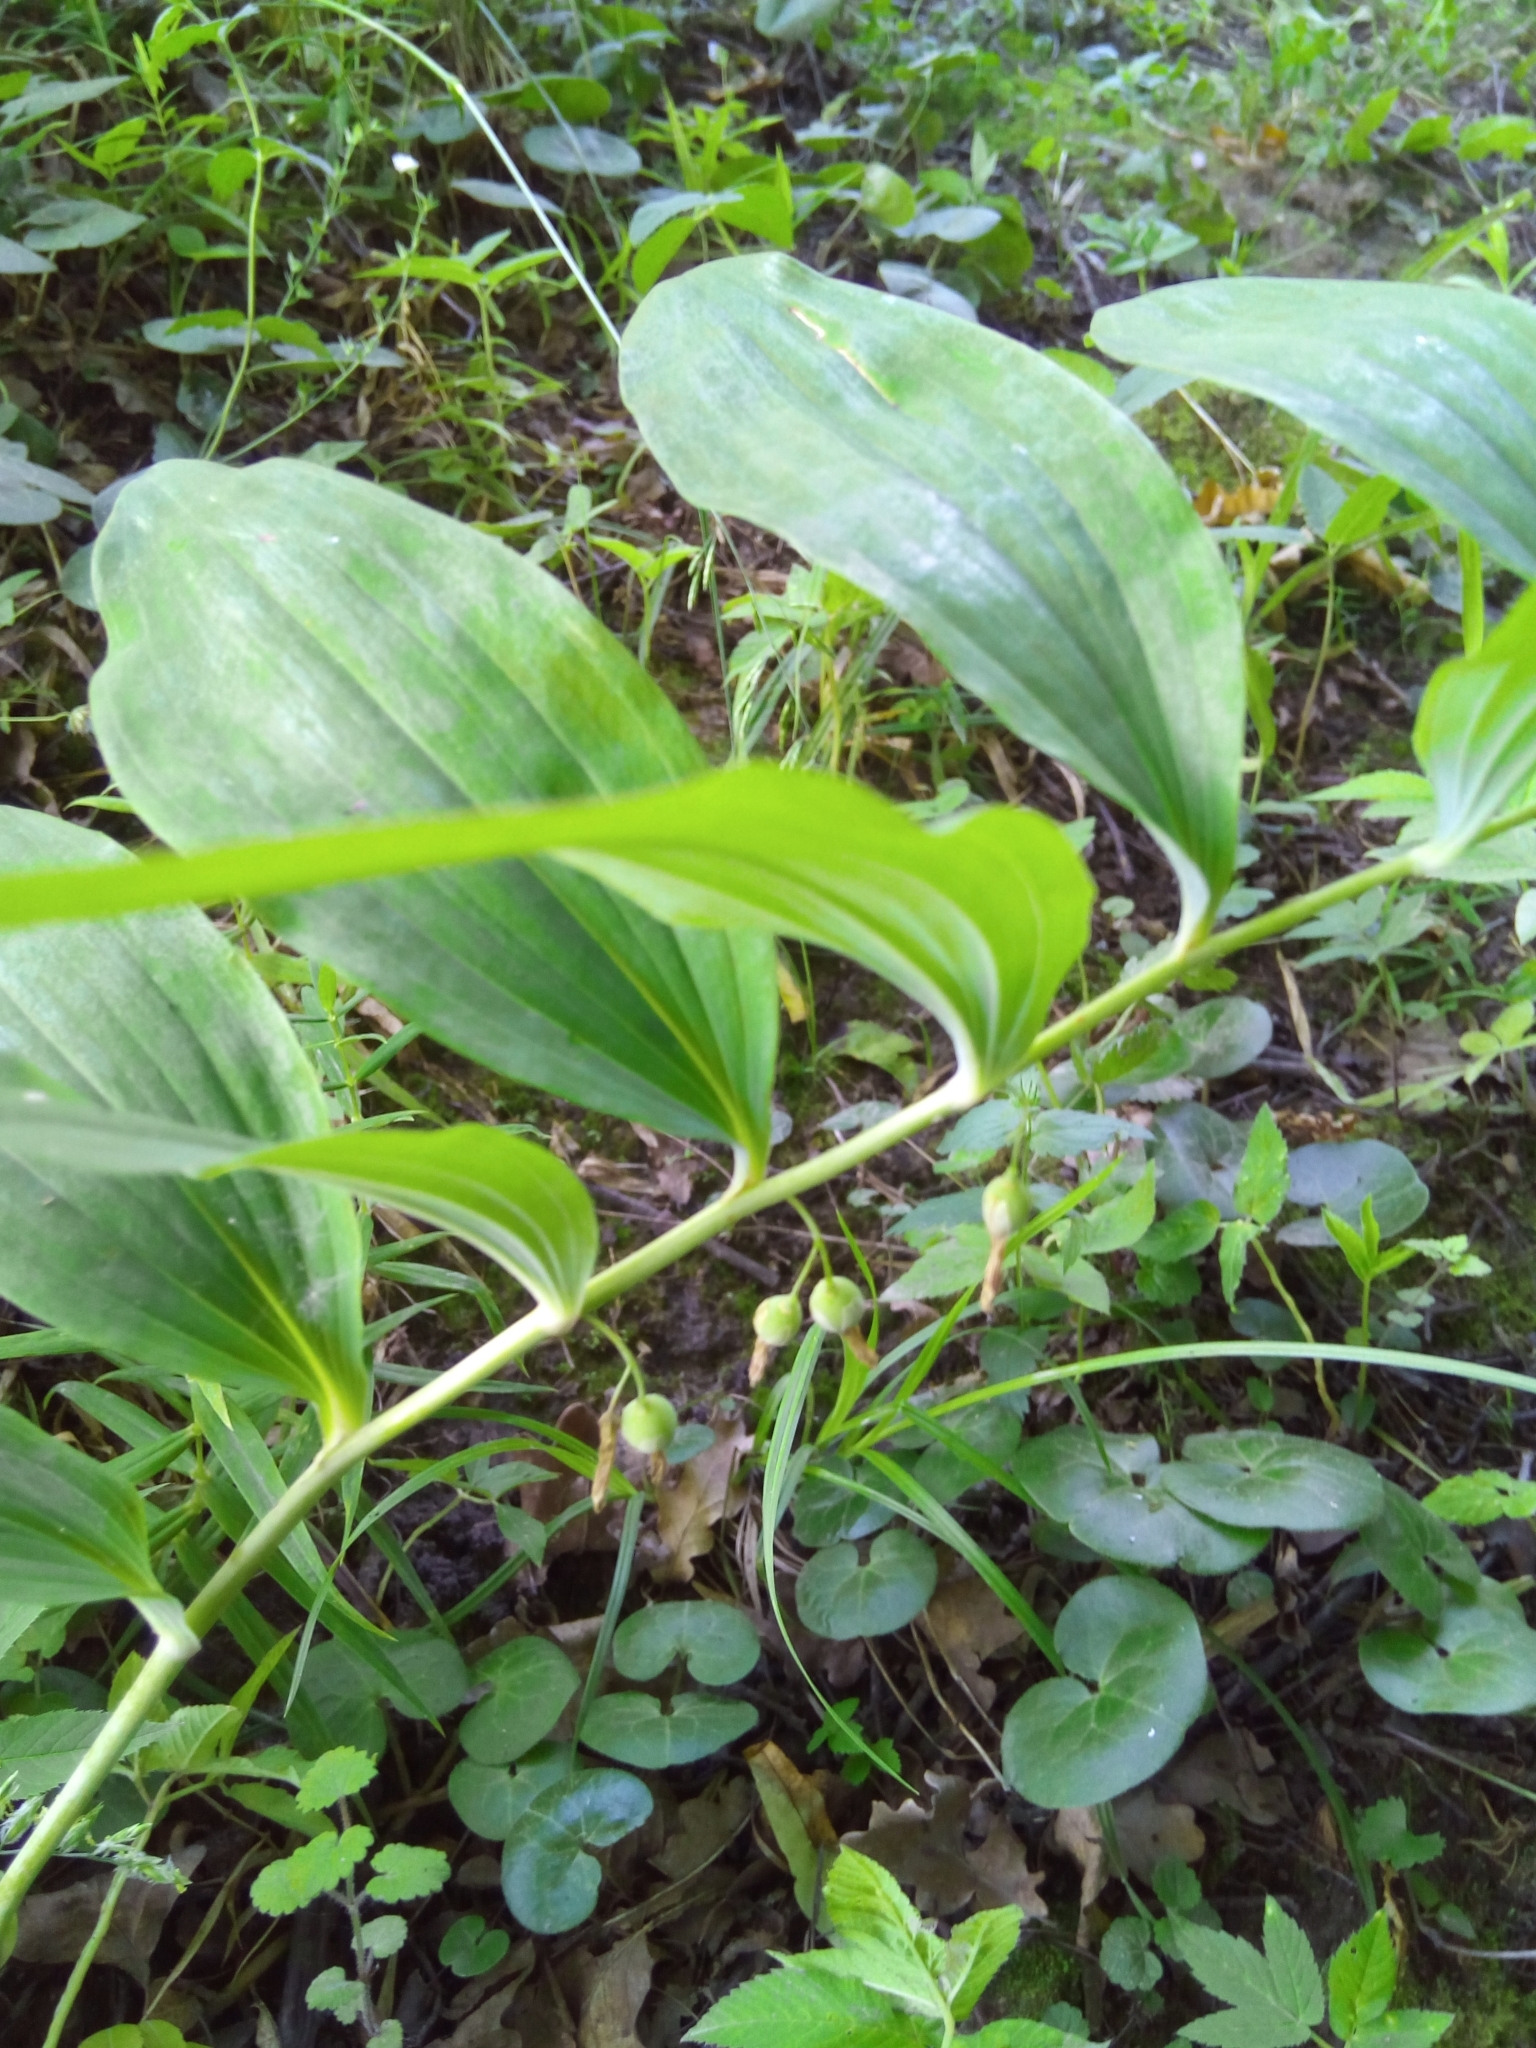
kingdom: Plantae
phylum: Tracheophyta
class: Liliopsida
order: Asparagales
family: Asparagaceae
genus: Polygonatum
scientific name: Polygonatum odoratum
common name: Angular solomon's-seal
